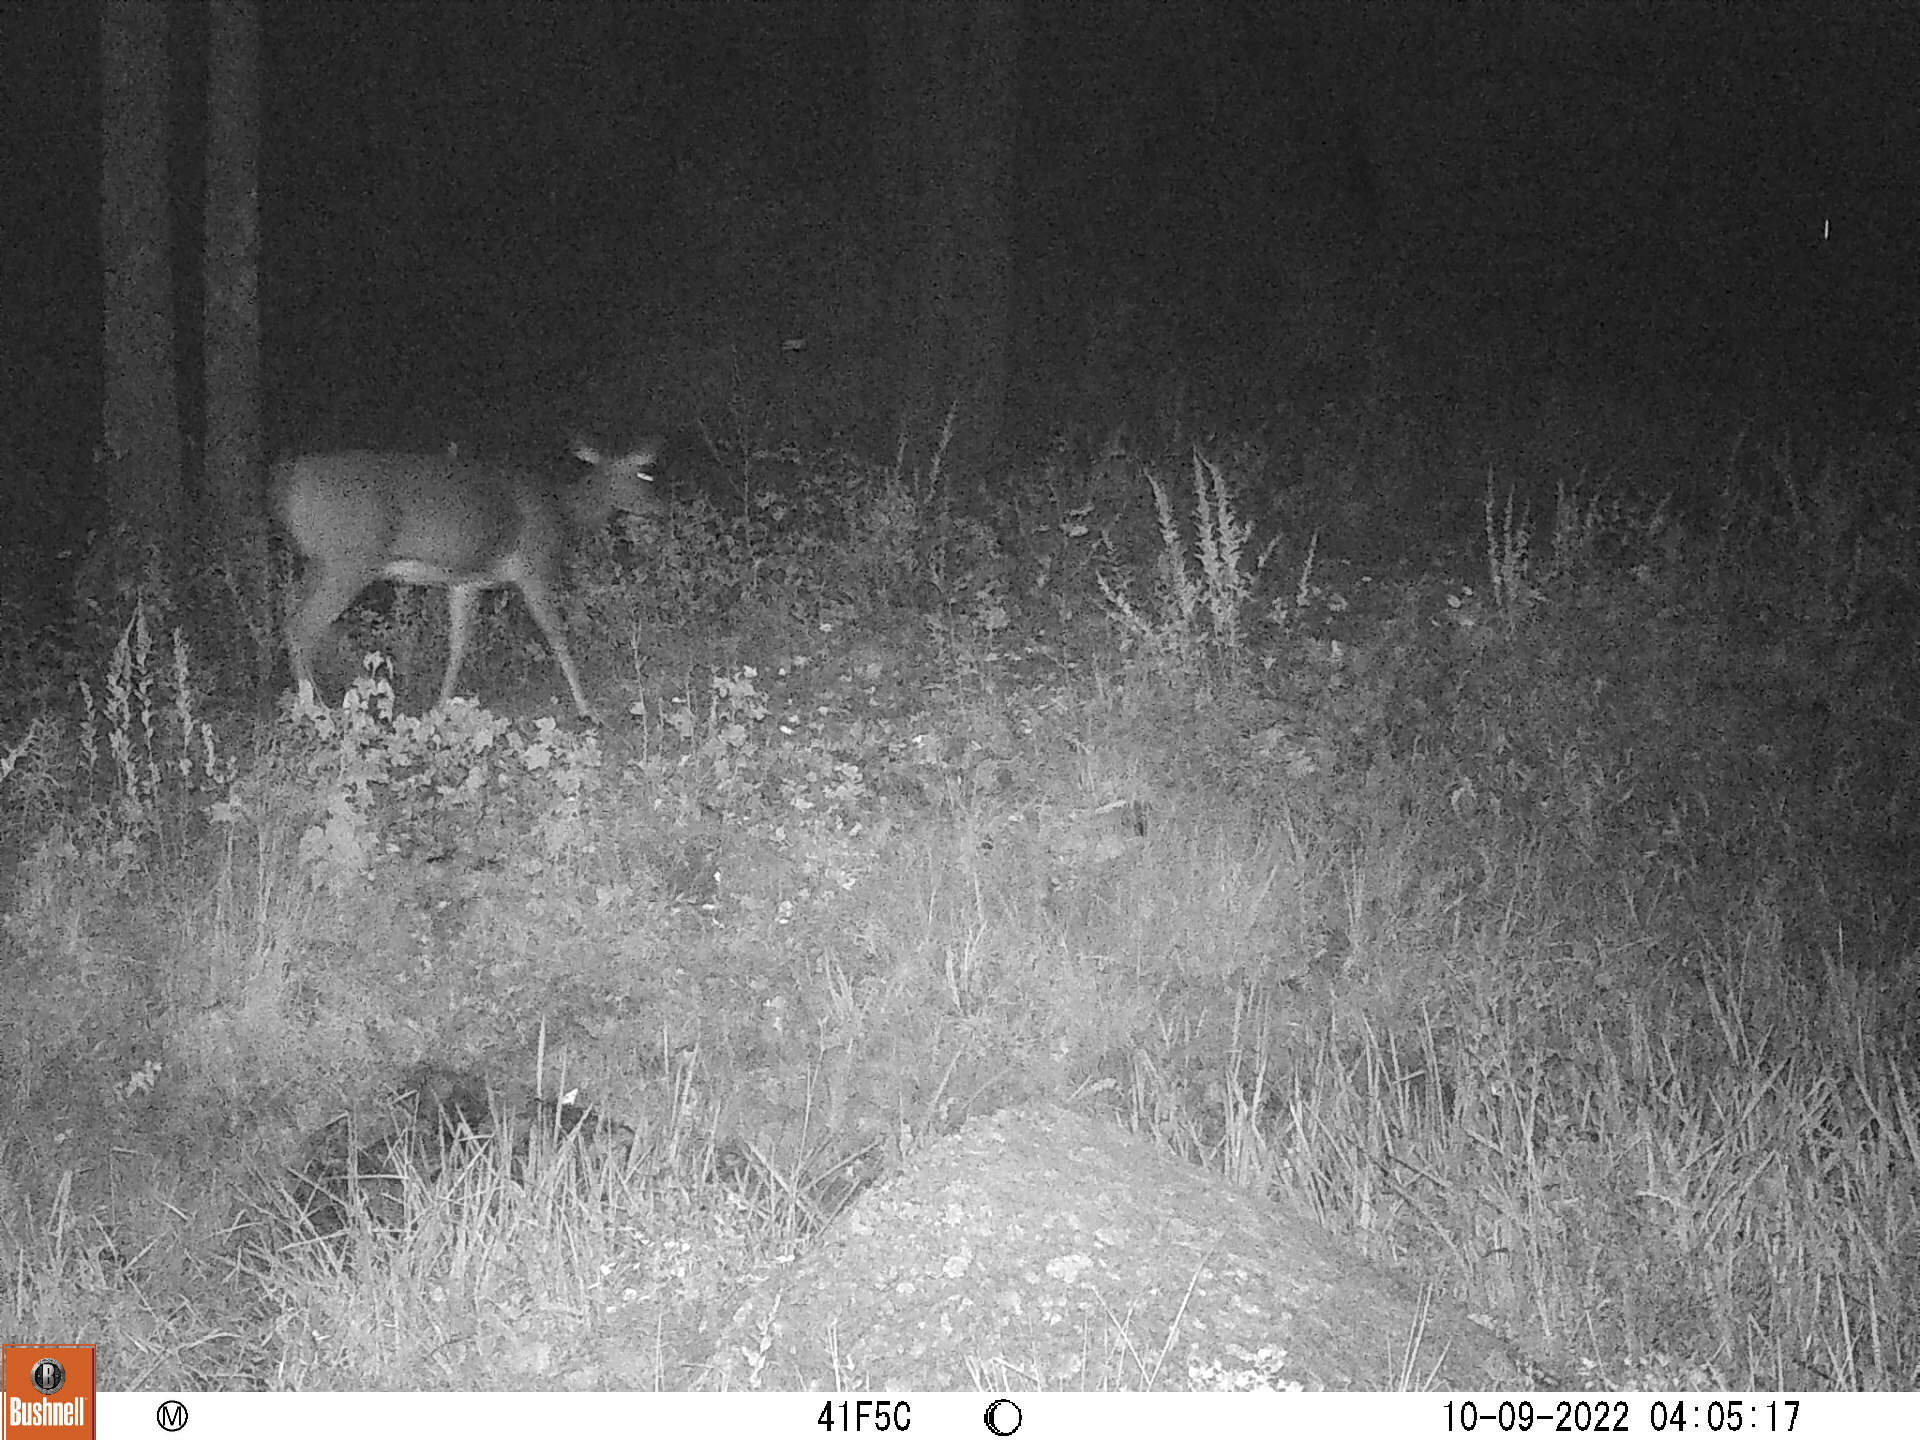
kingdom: Animalia
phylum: Chordata
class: Mammalia
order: Artiodactyla
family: Cervidae
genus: Odocoileus
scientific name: Odocoileus virginianus
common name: White-tailed deer
